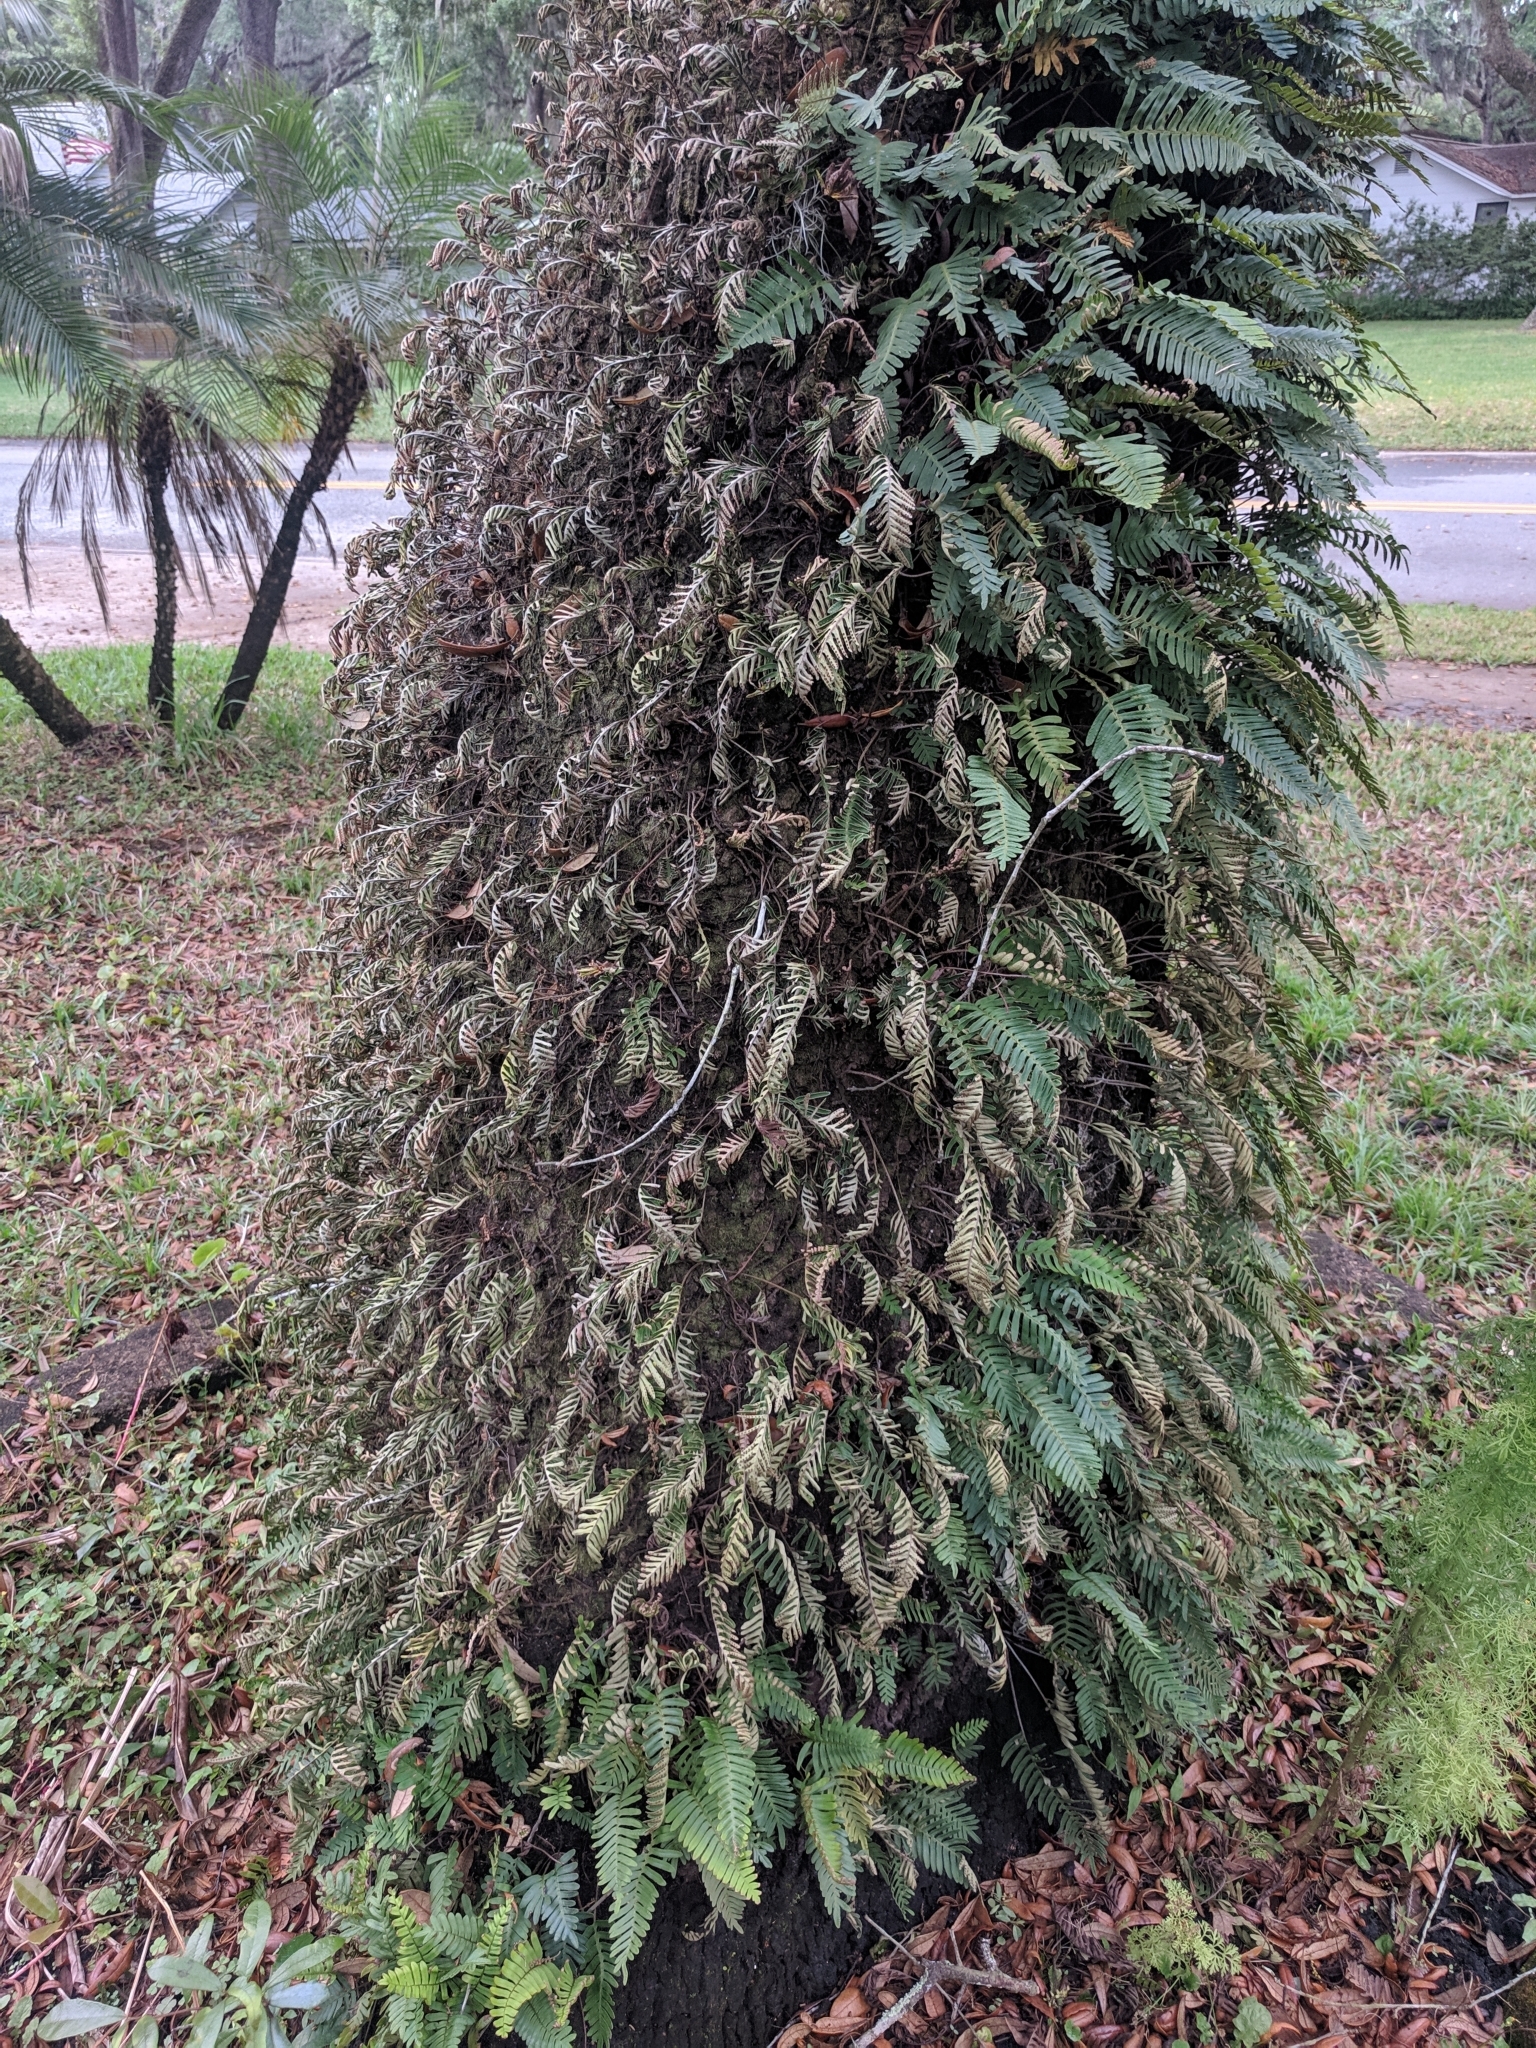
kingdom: Plantae
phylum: Tracheophyta
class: Polypodiopsida
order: Polypodiales
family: Polypodiaceae
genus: Pleopeltis
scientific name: Pleopeltis michauxiana
